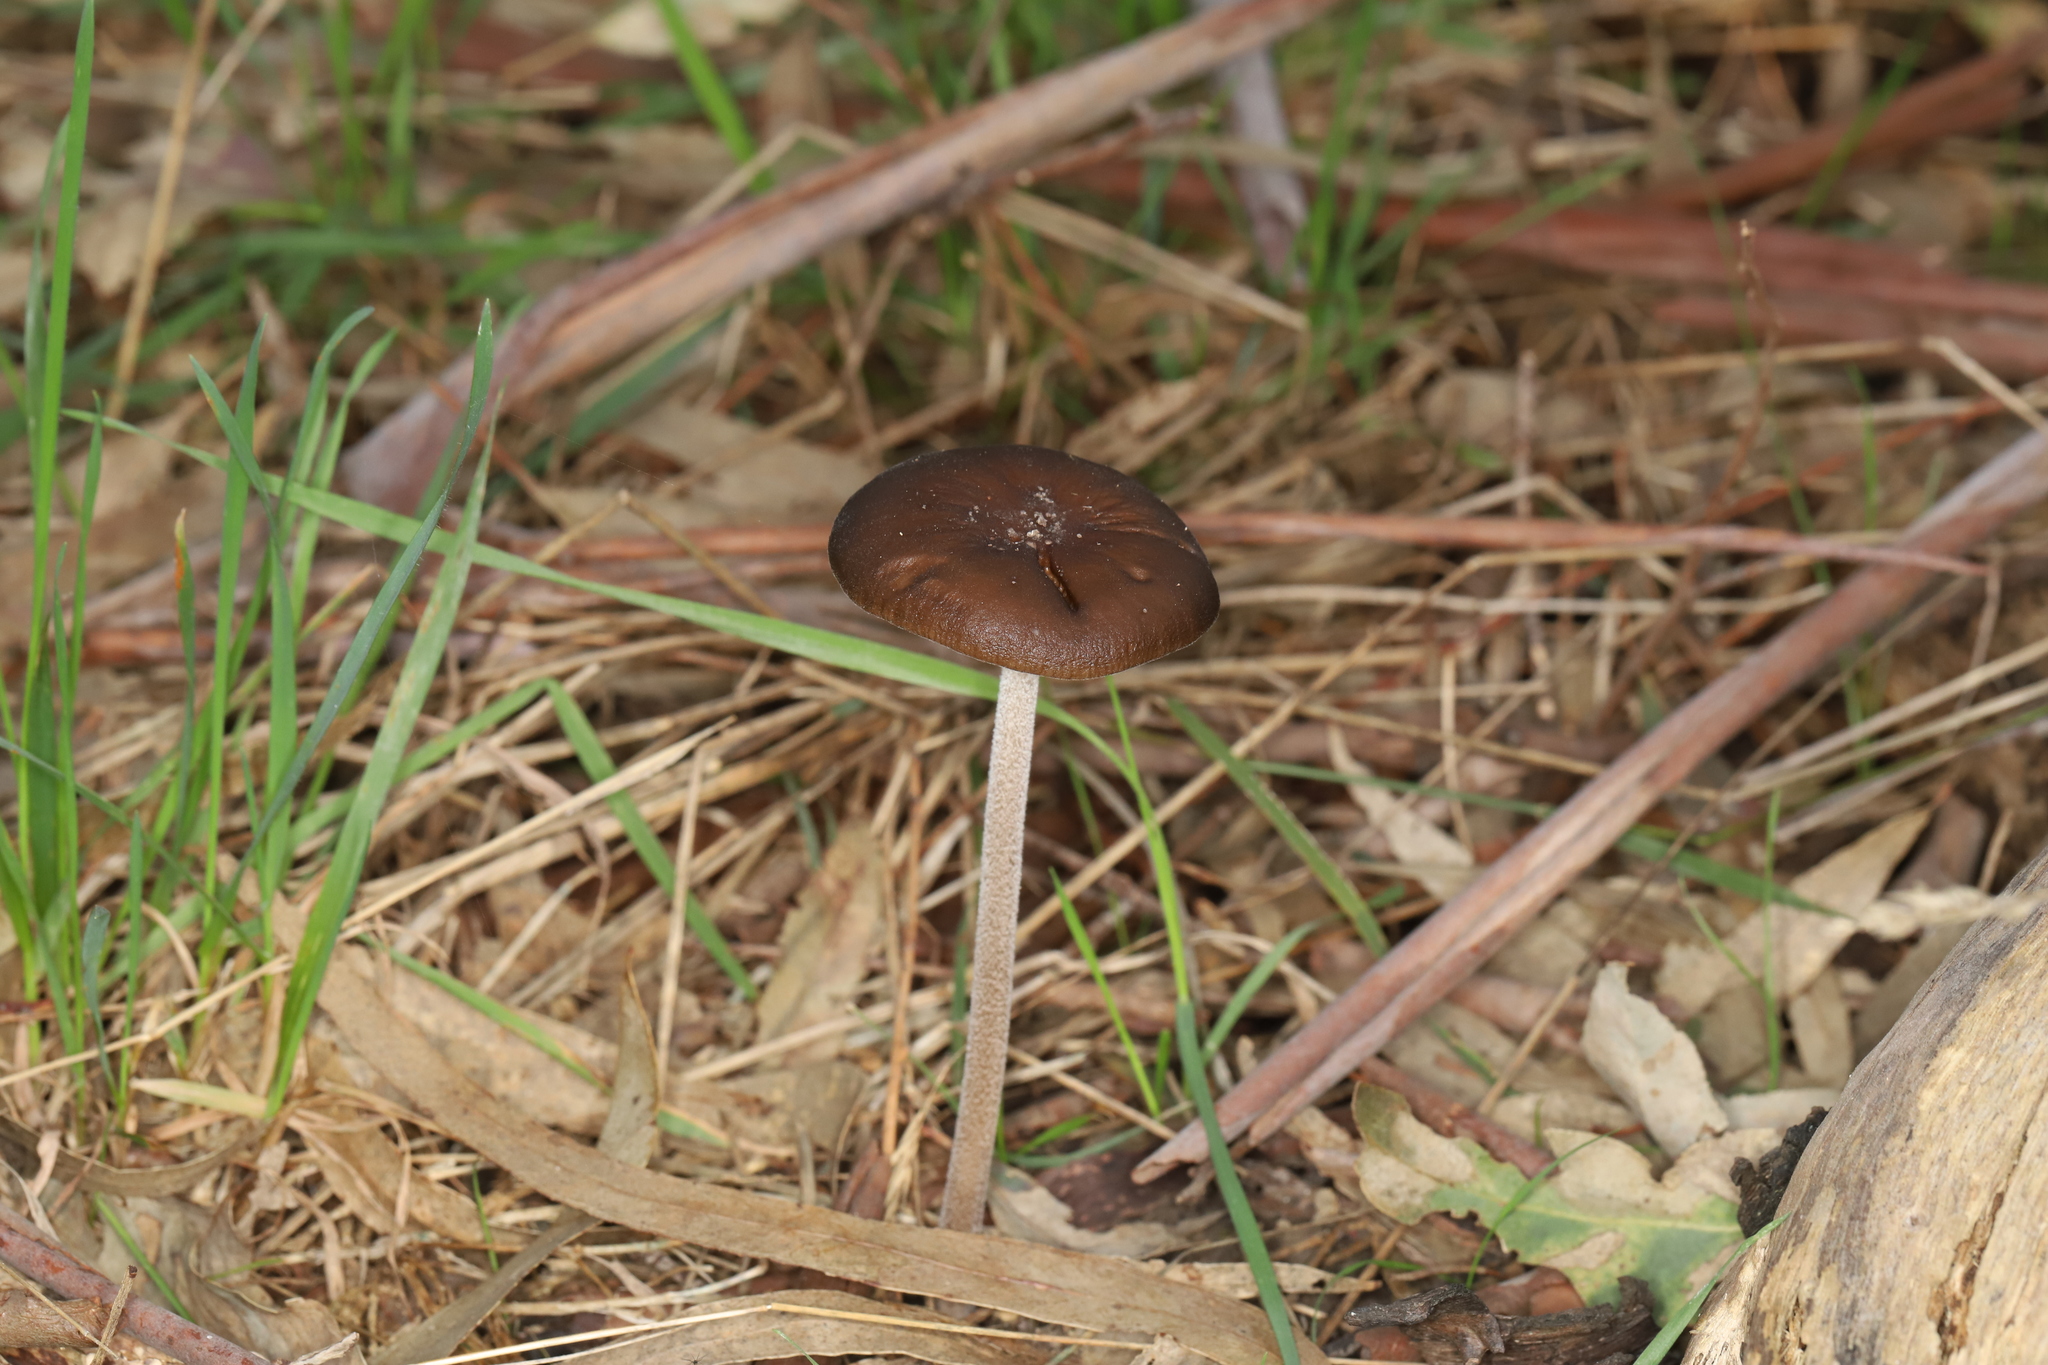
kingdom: Fungi
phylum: Basidiomycota
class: Agaricomycetes
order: Agaricales
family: Physalacriaceae
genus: Hymenopellis
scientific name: Hymenopellis gigaspora
